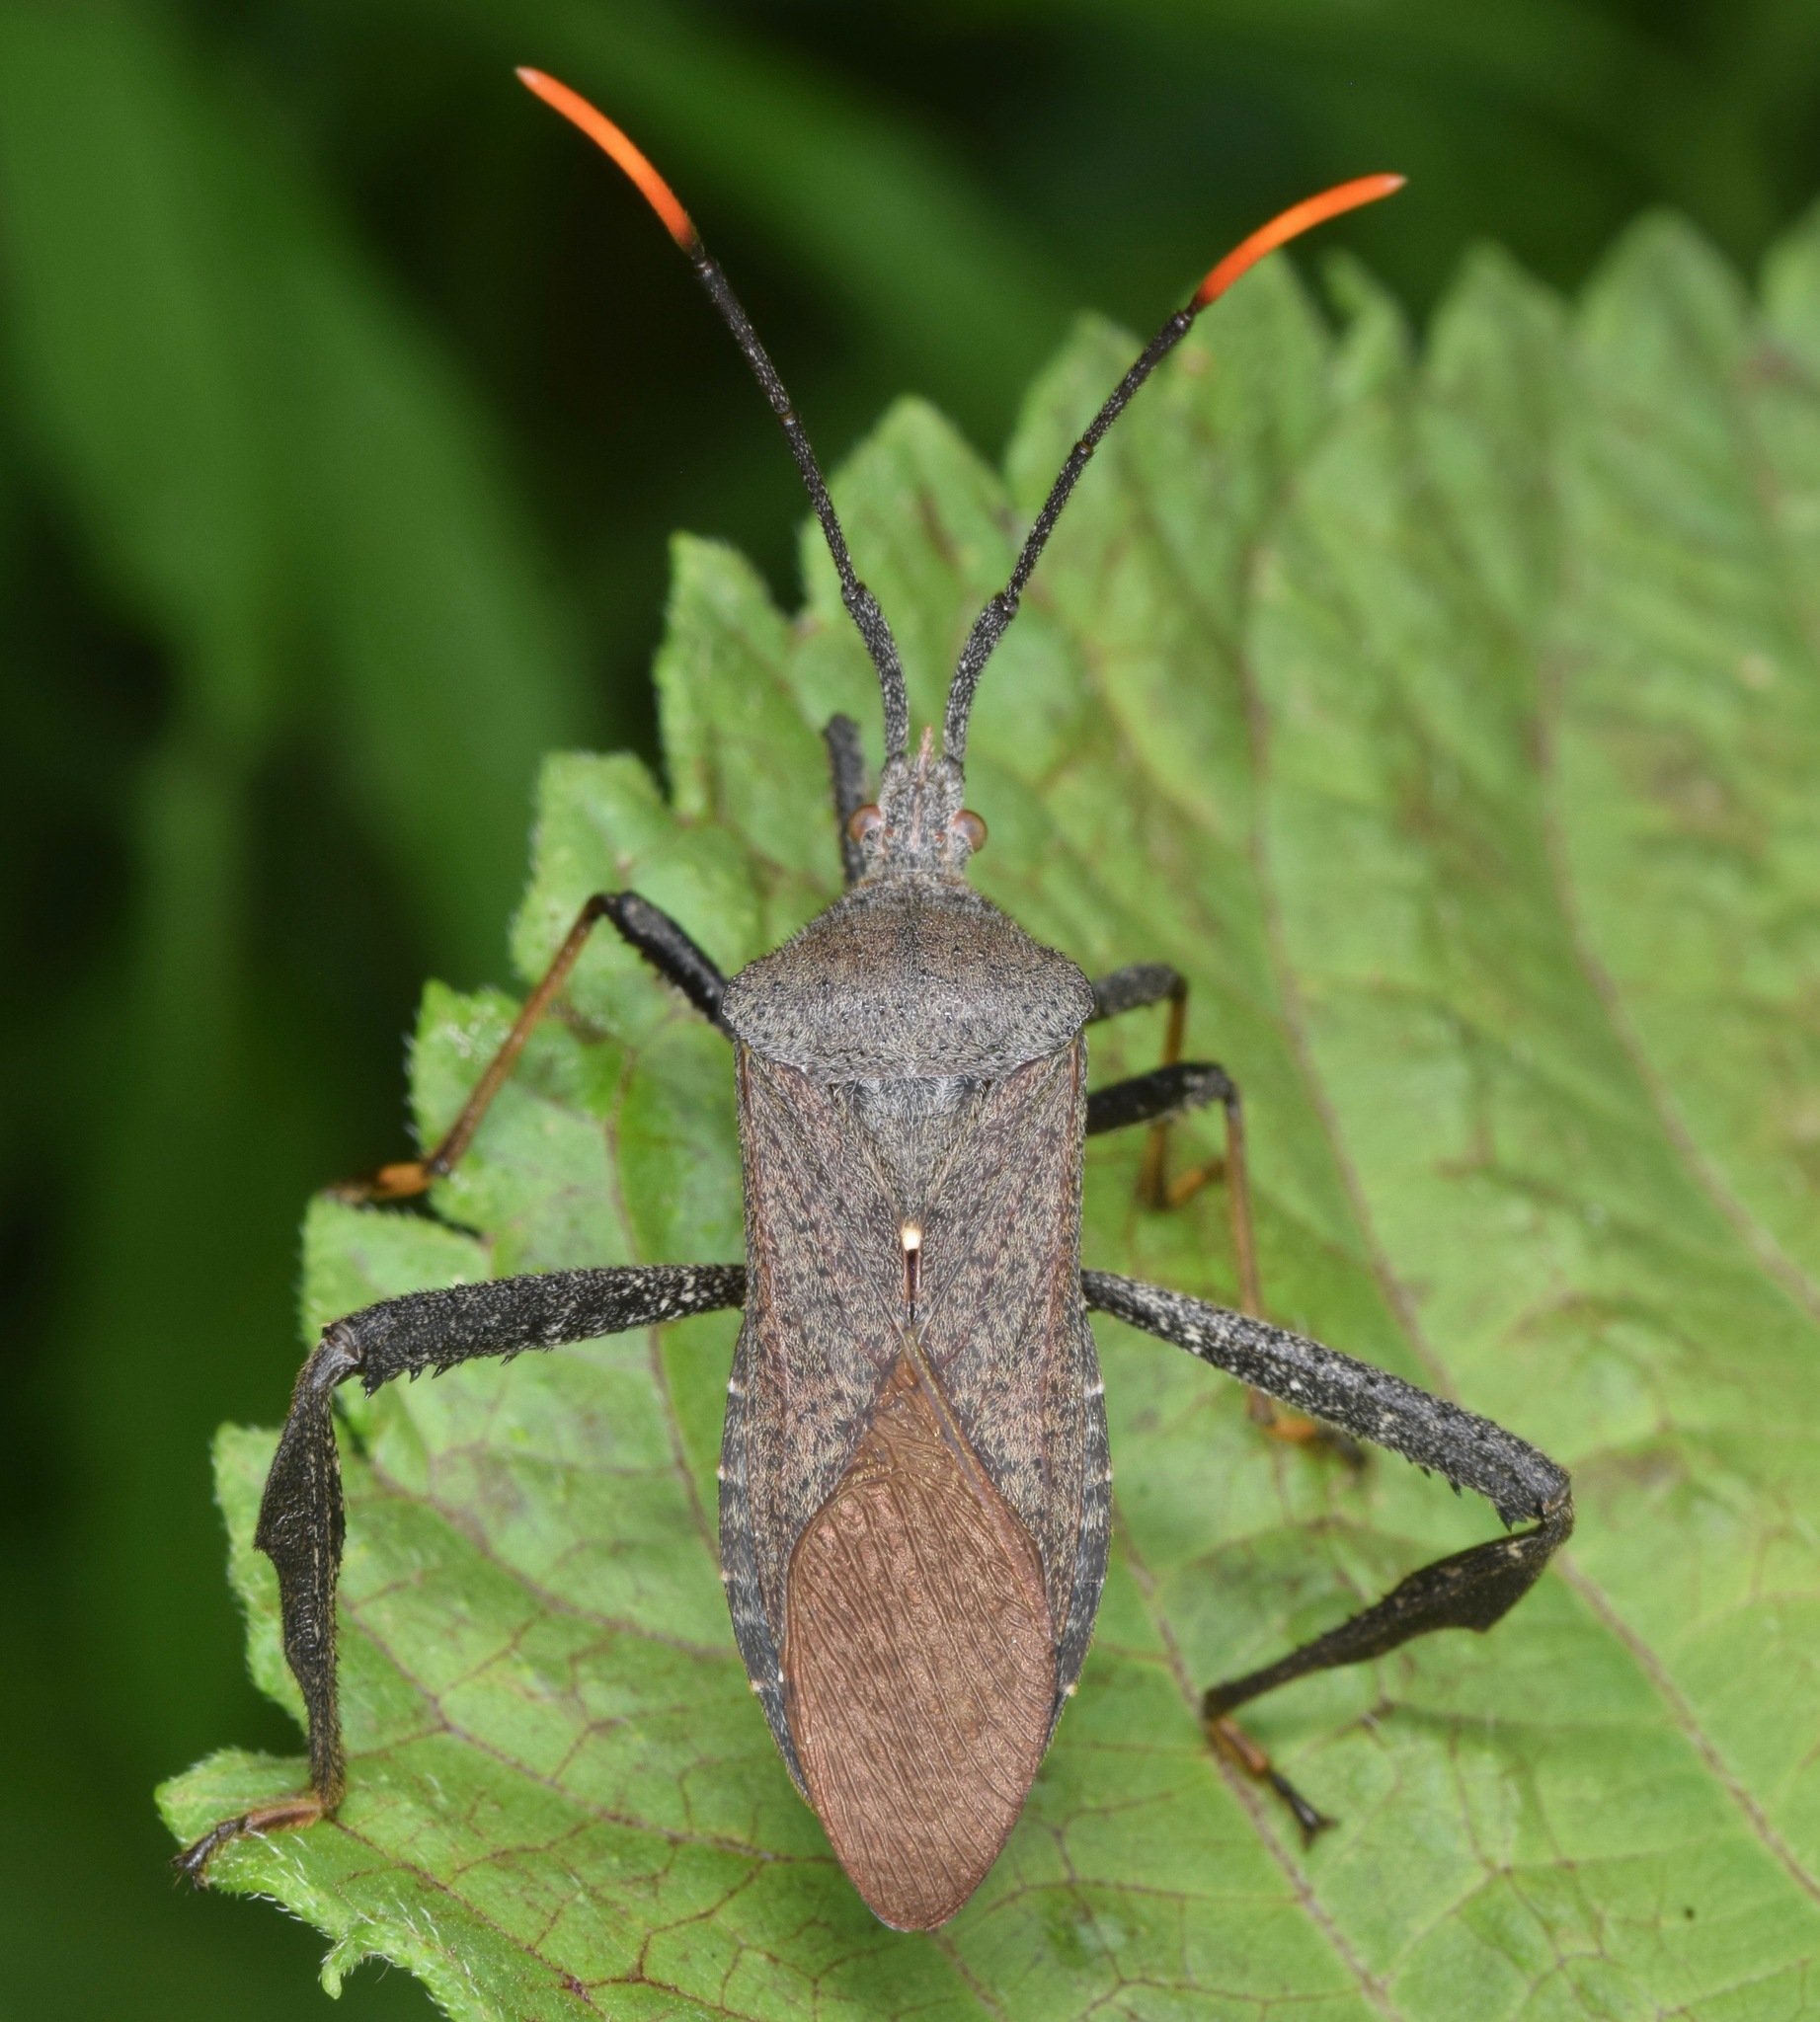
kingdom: Animalia
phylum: Arthropoda
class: Insecta
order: Hemiptera
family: Coreidae
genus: Acanthocephala
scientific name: Acanthocephala terminalis
